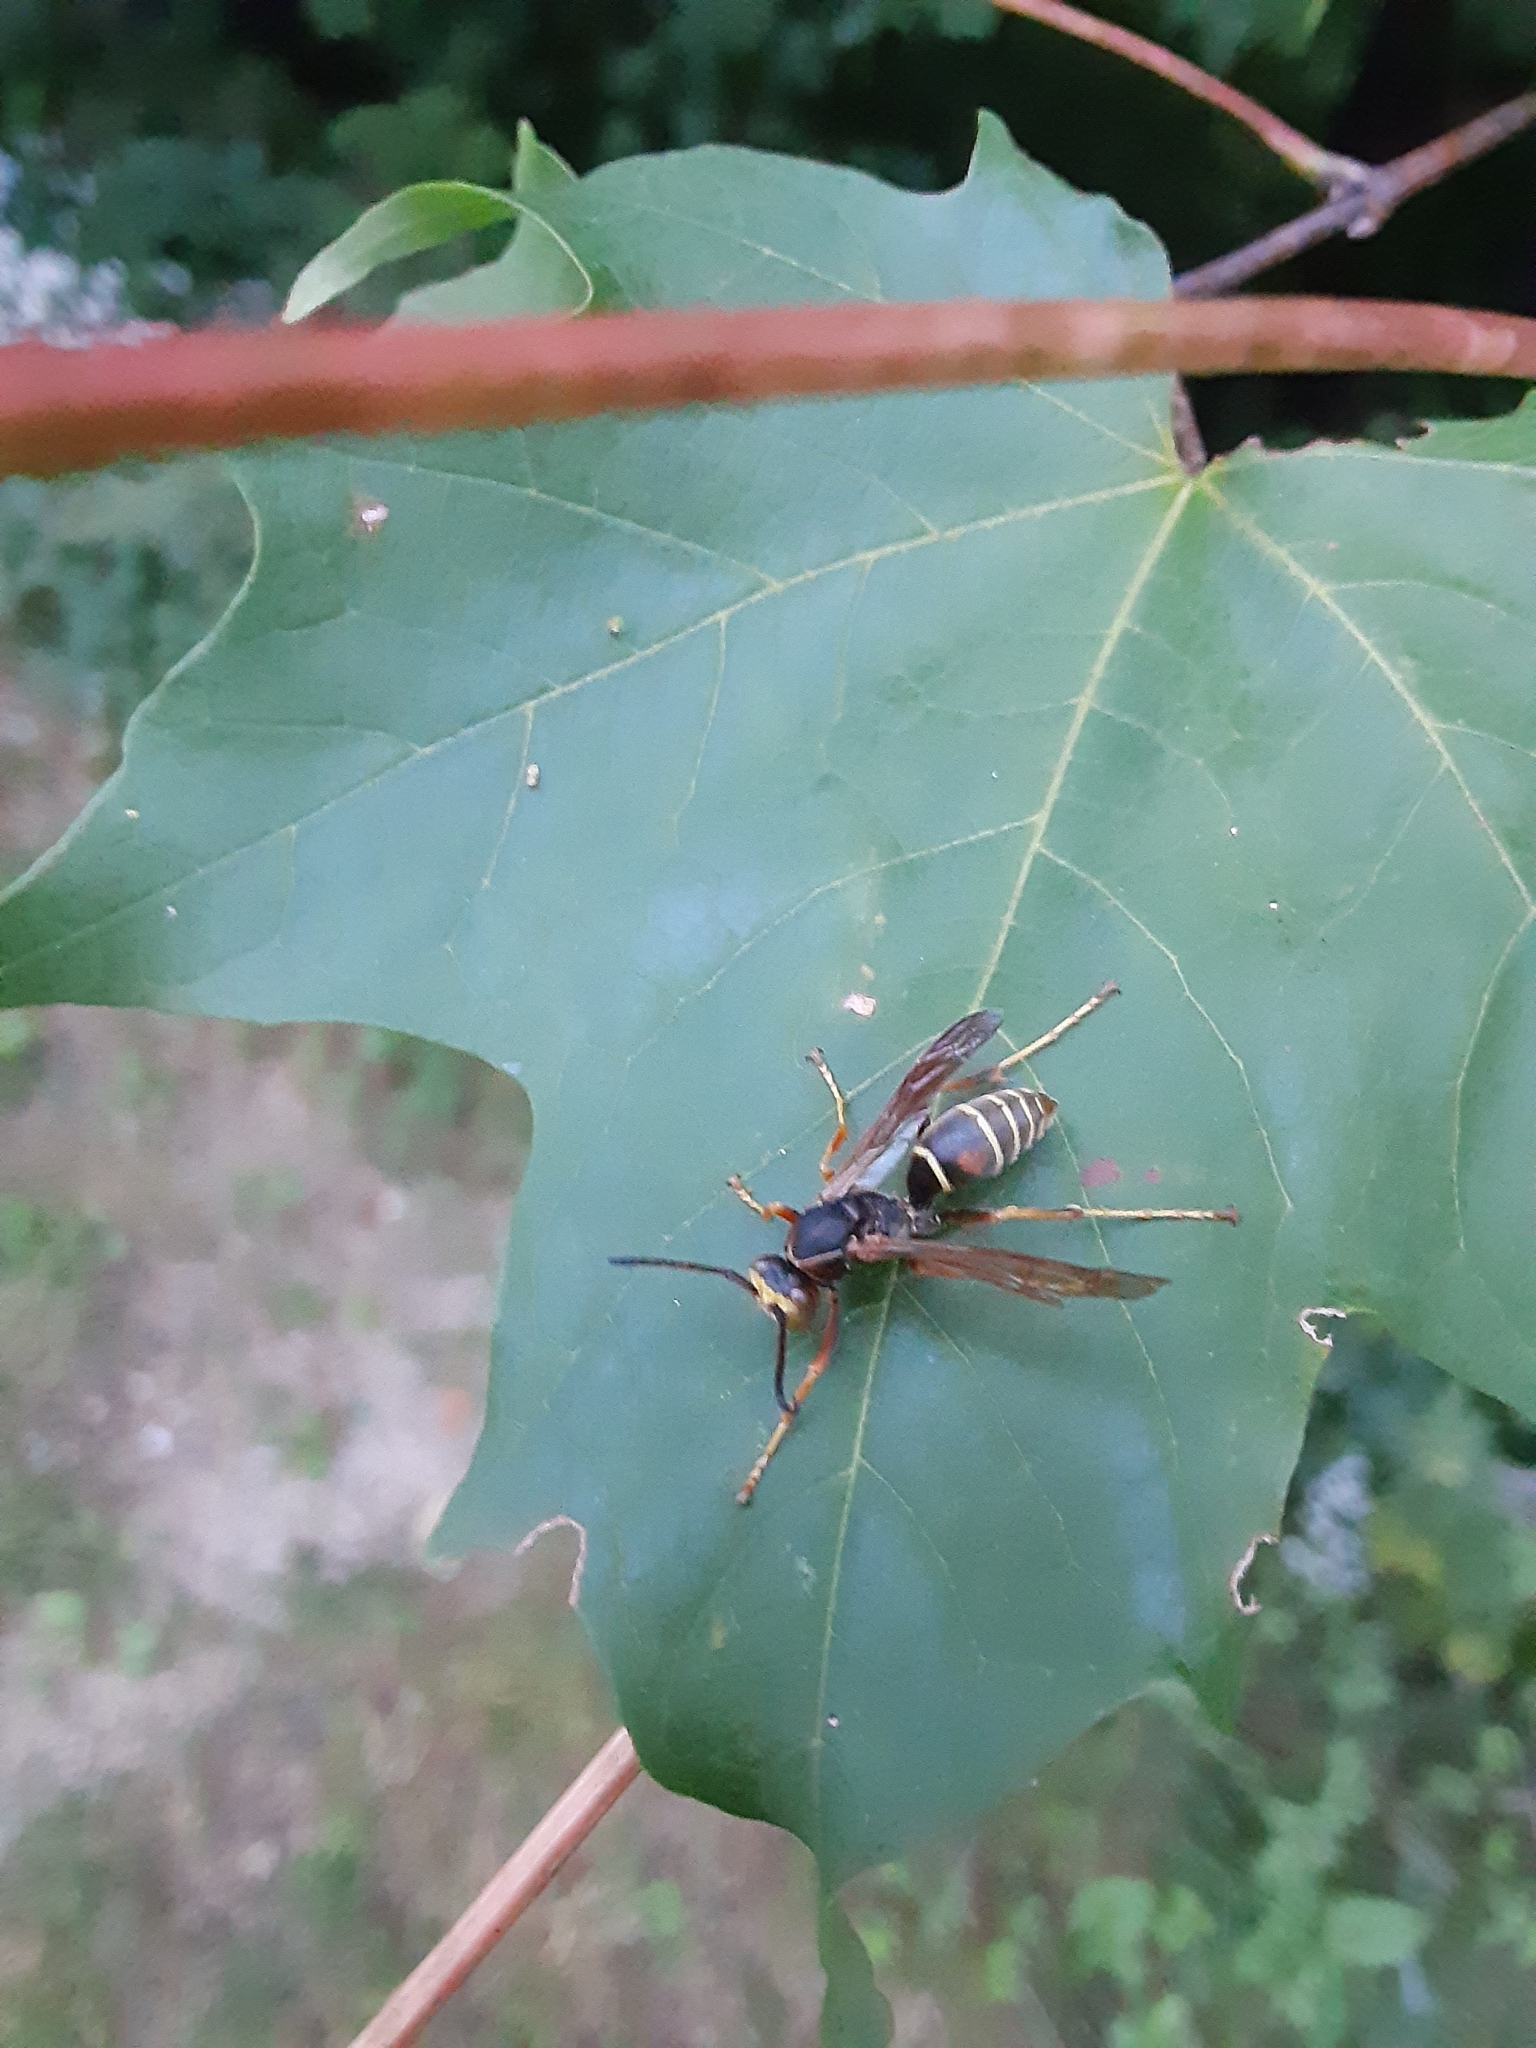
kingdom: Animalia
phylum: Arthropoda
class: Insecta
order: Hymenoptera
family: Eumenidae
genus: Polistes
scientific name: Polistes fuscatus
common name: Dark paper wasp
